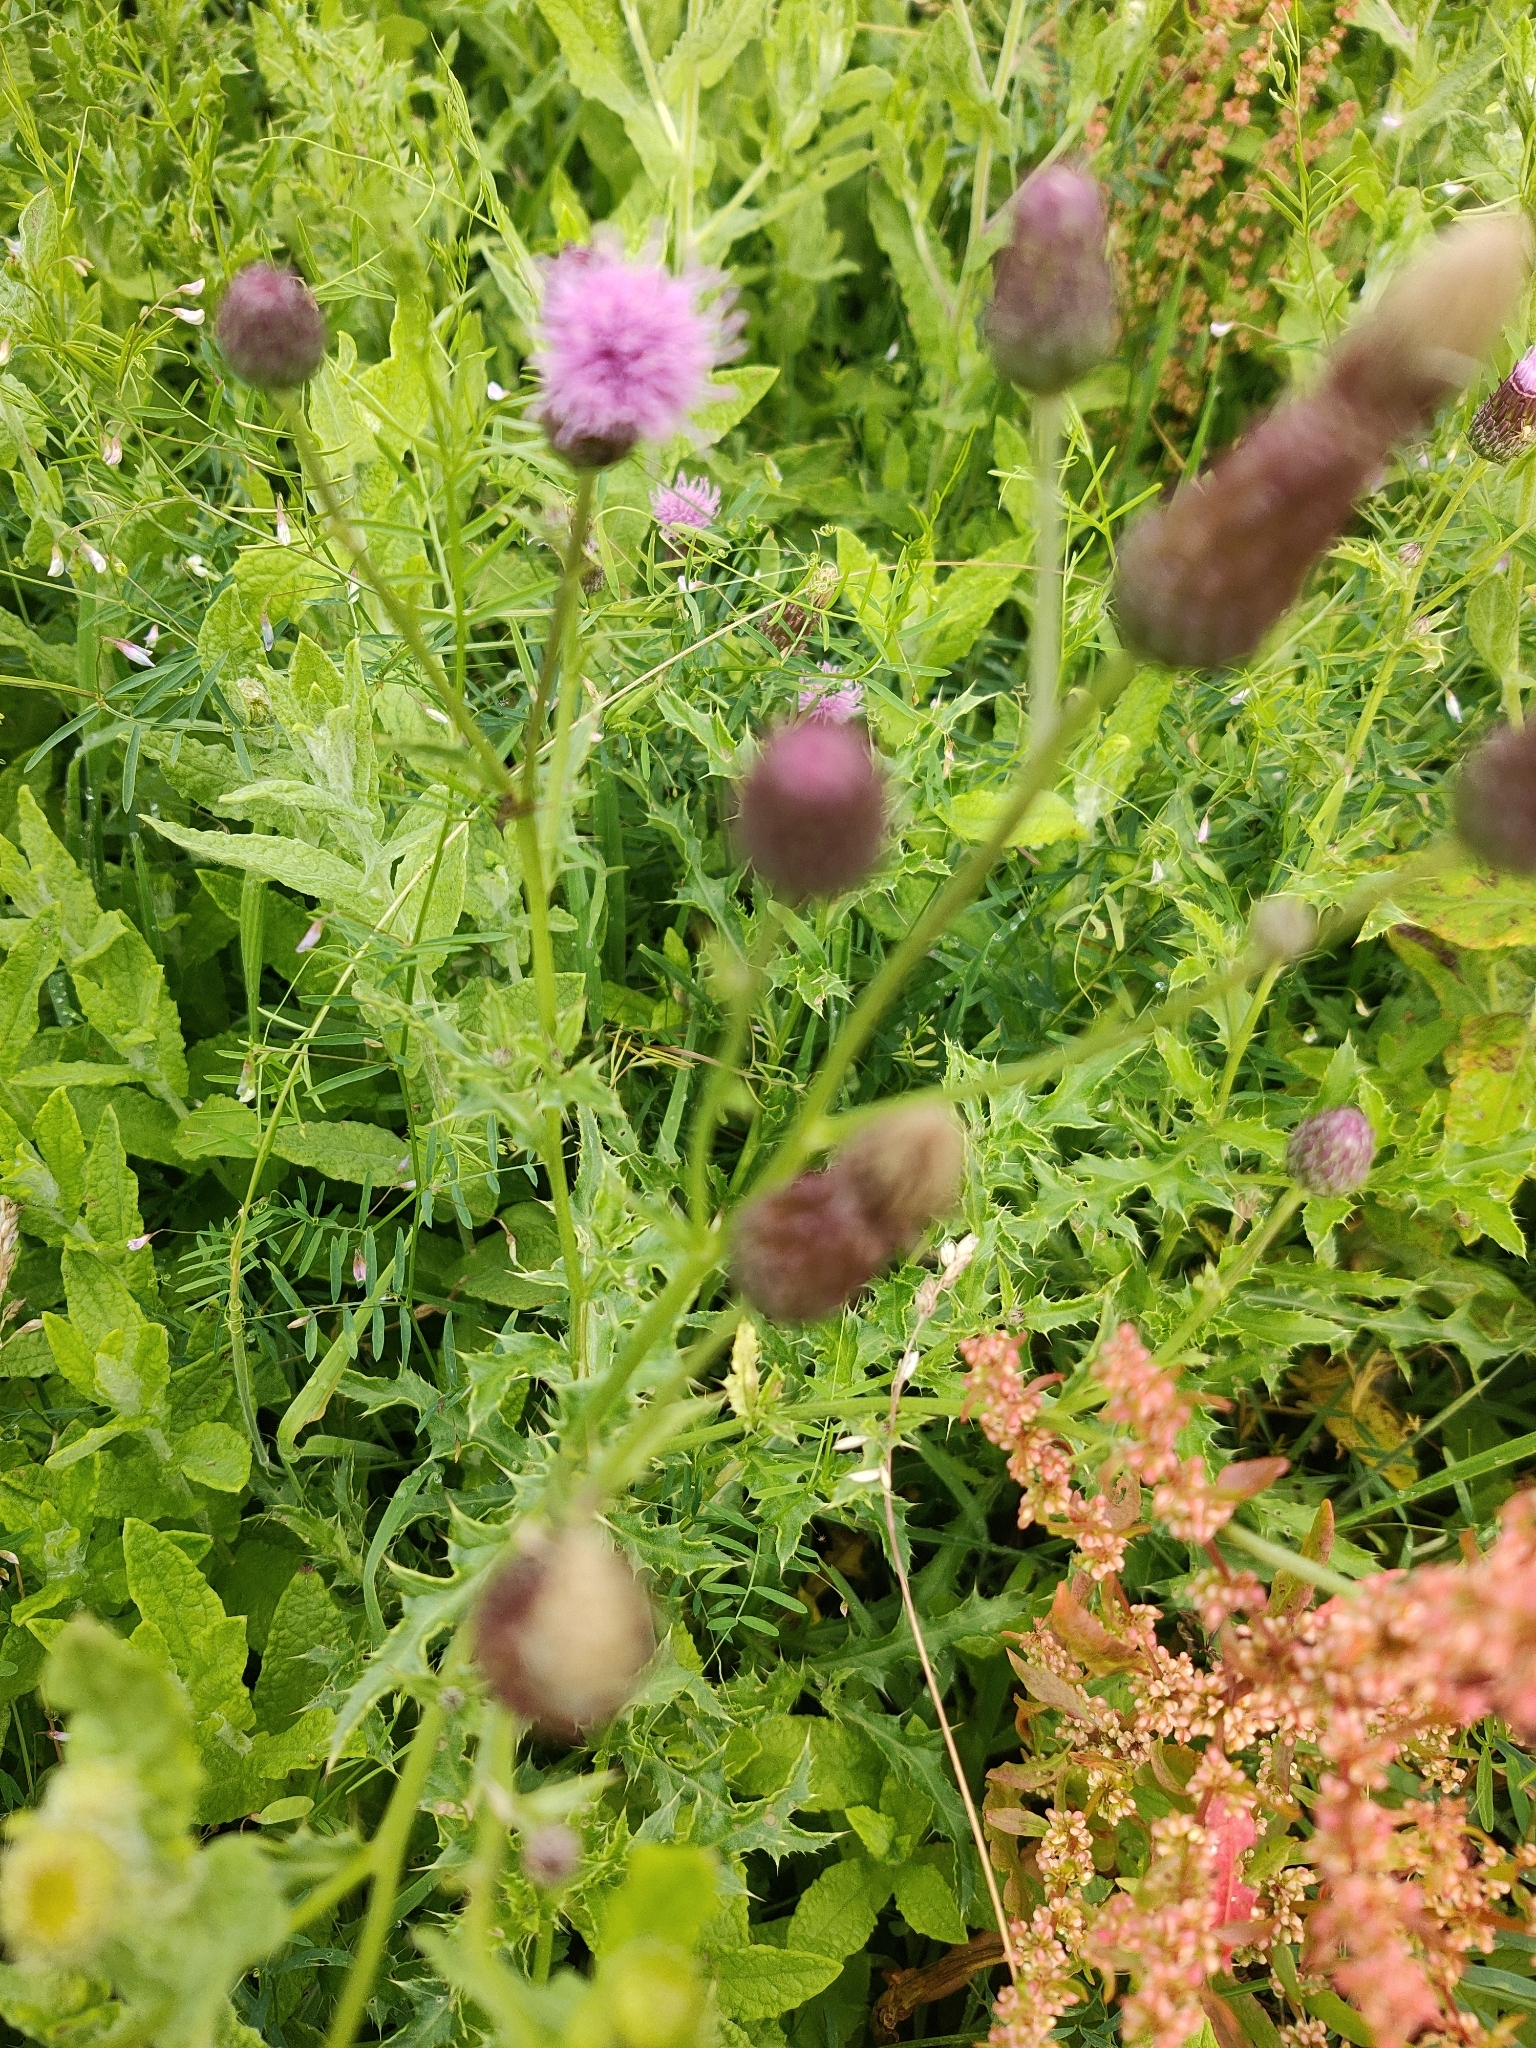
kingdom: Plantae
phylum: Tracheophyta
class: Magnoliopsida
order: Asterales
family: Asteraceae
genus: Cirsium
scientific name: Cirsium arvense
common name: Creeping thistle
